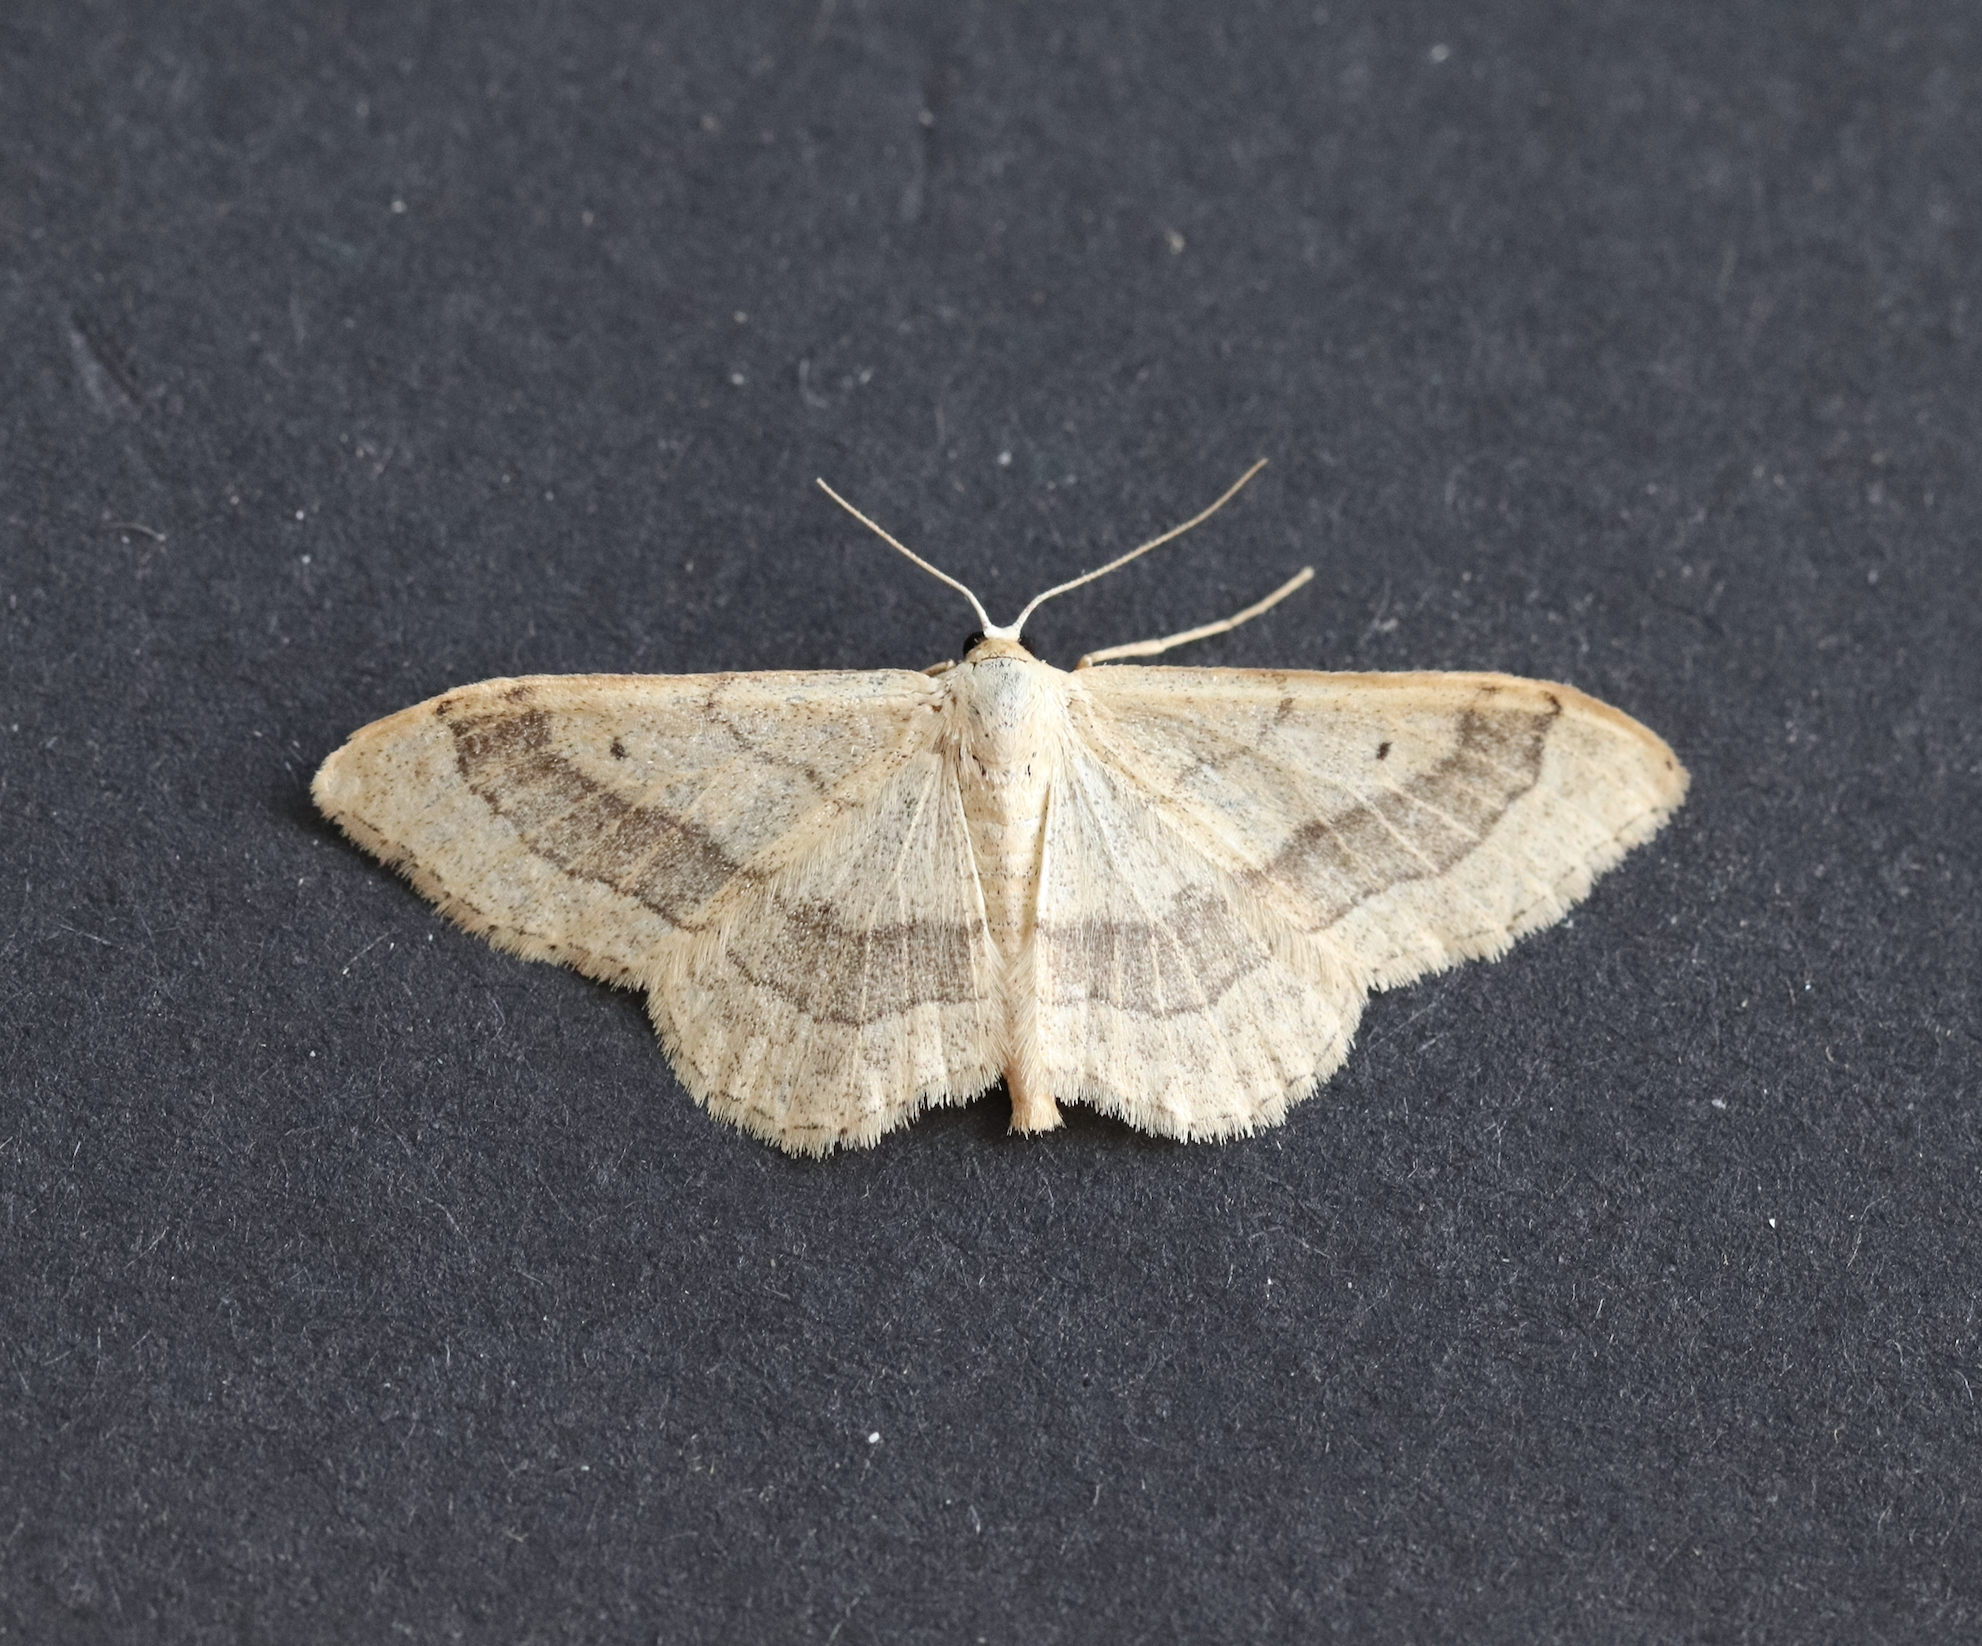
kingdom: Animalia
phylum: Arthropoda
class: Insecta
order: Lepidoptera
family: Geometridae
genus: Idaea
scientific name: Idaea aversata
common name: Riband wave
